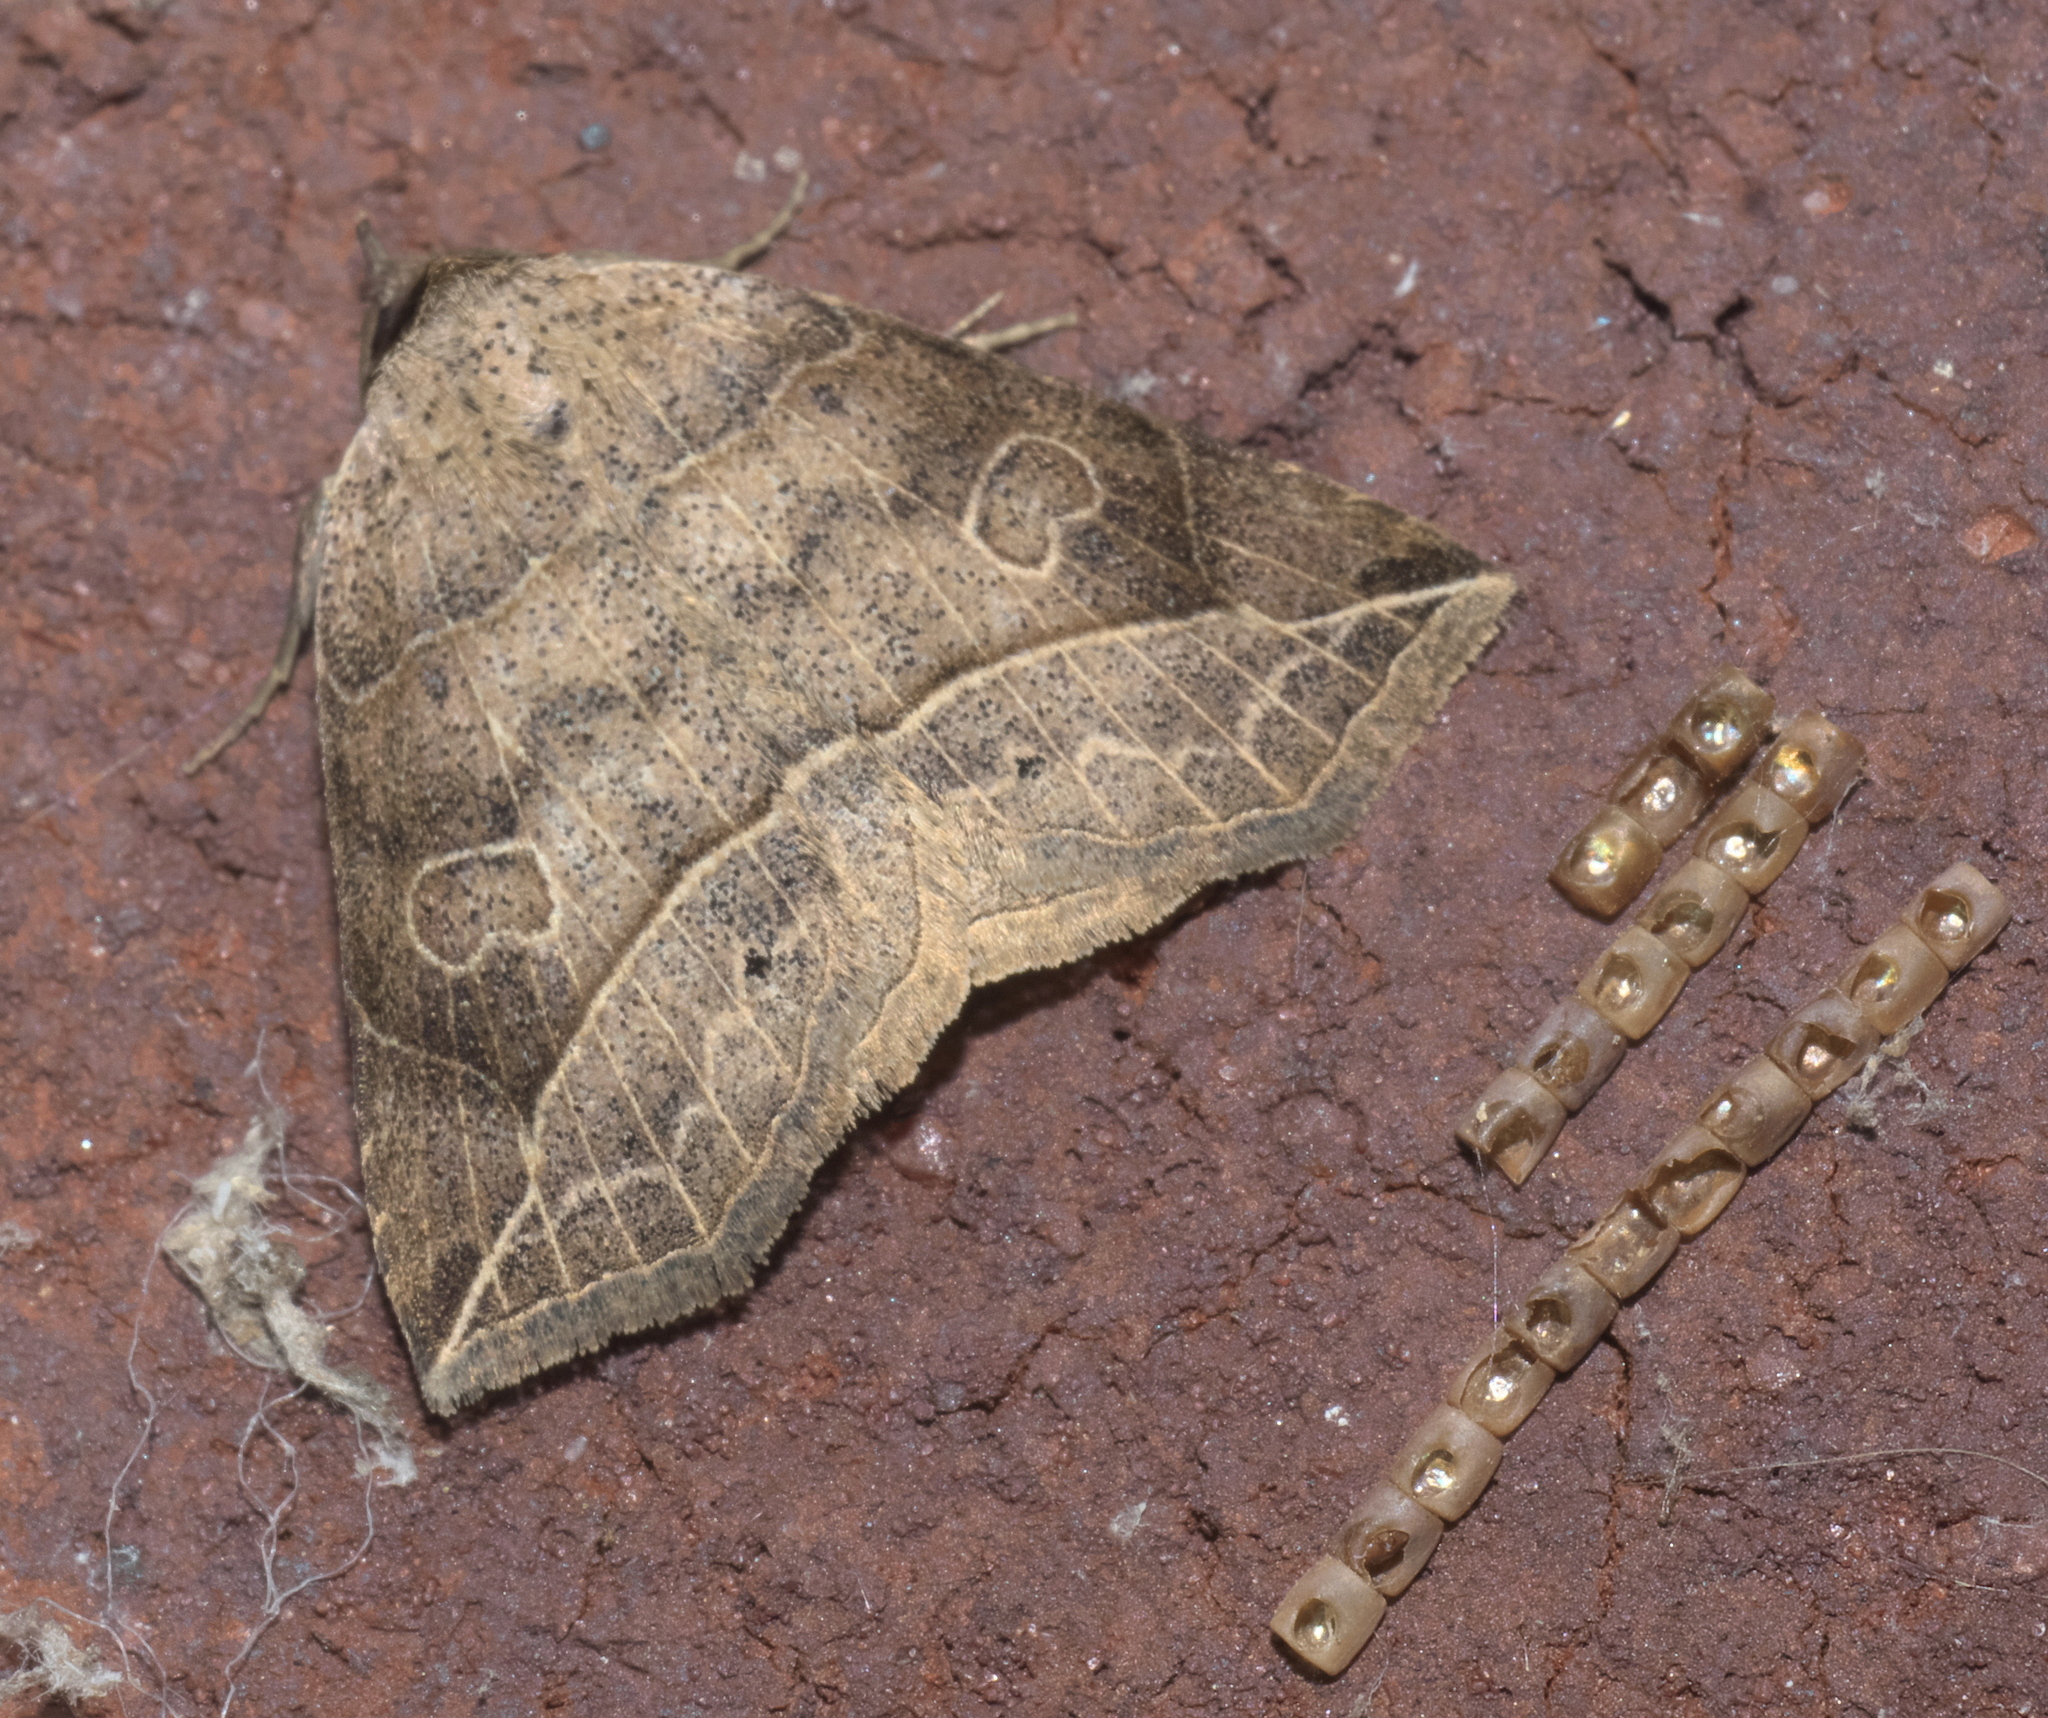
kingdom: Animalia
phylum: Arthropoda
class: Insecta
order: Lepidoptera
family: Erebidae
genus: Isogona
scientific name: Isogona tenuis
